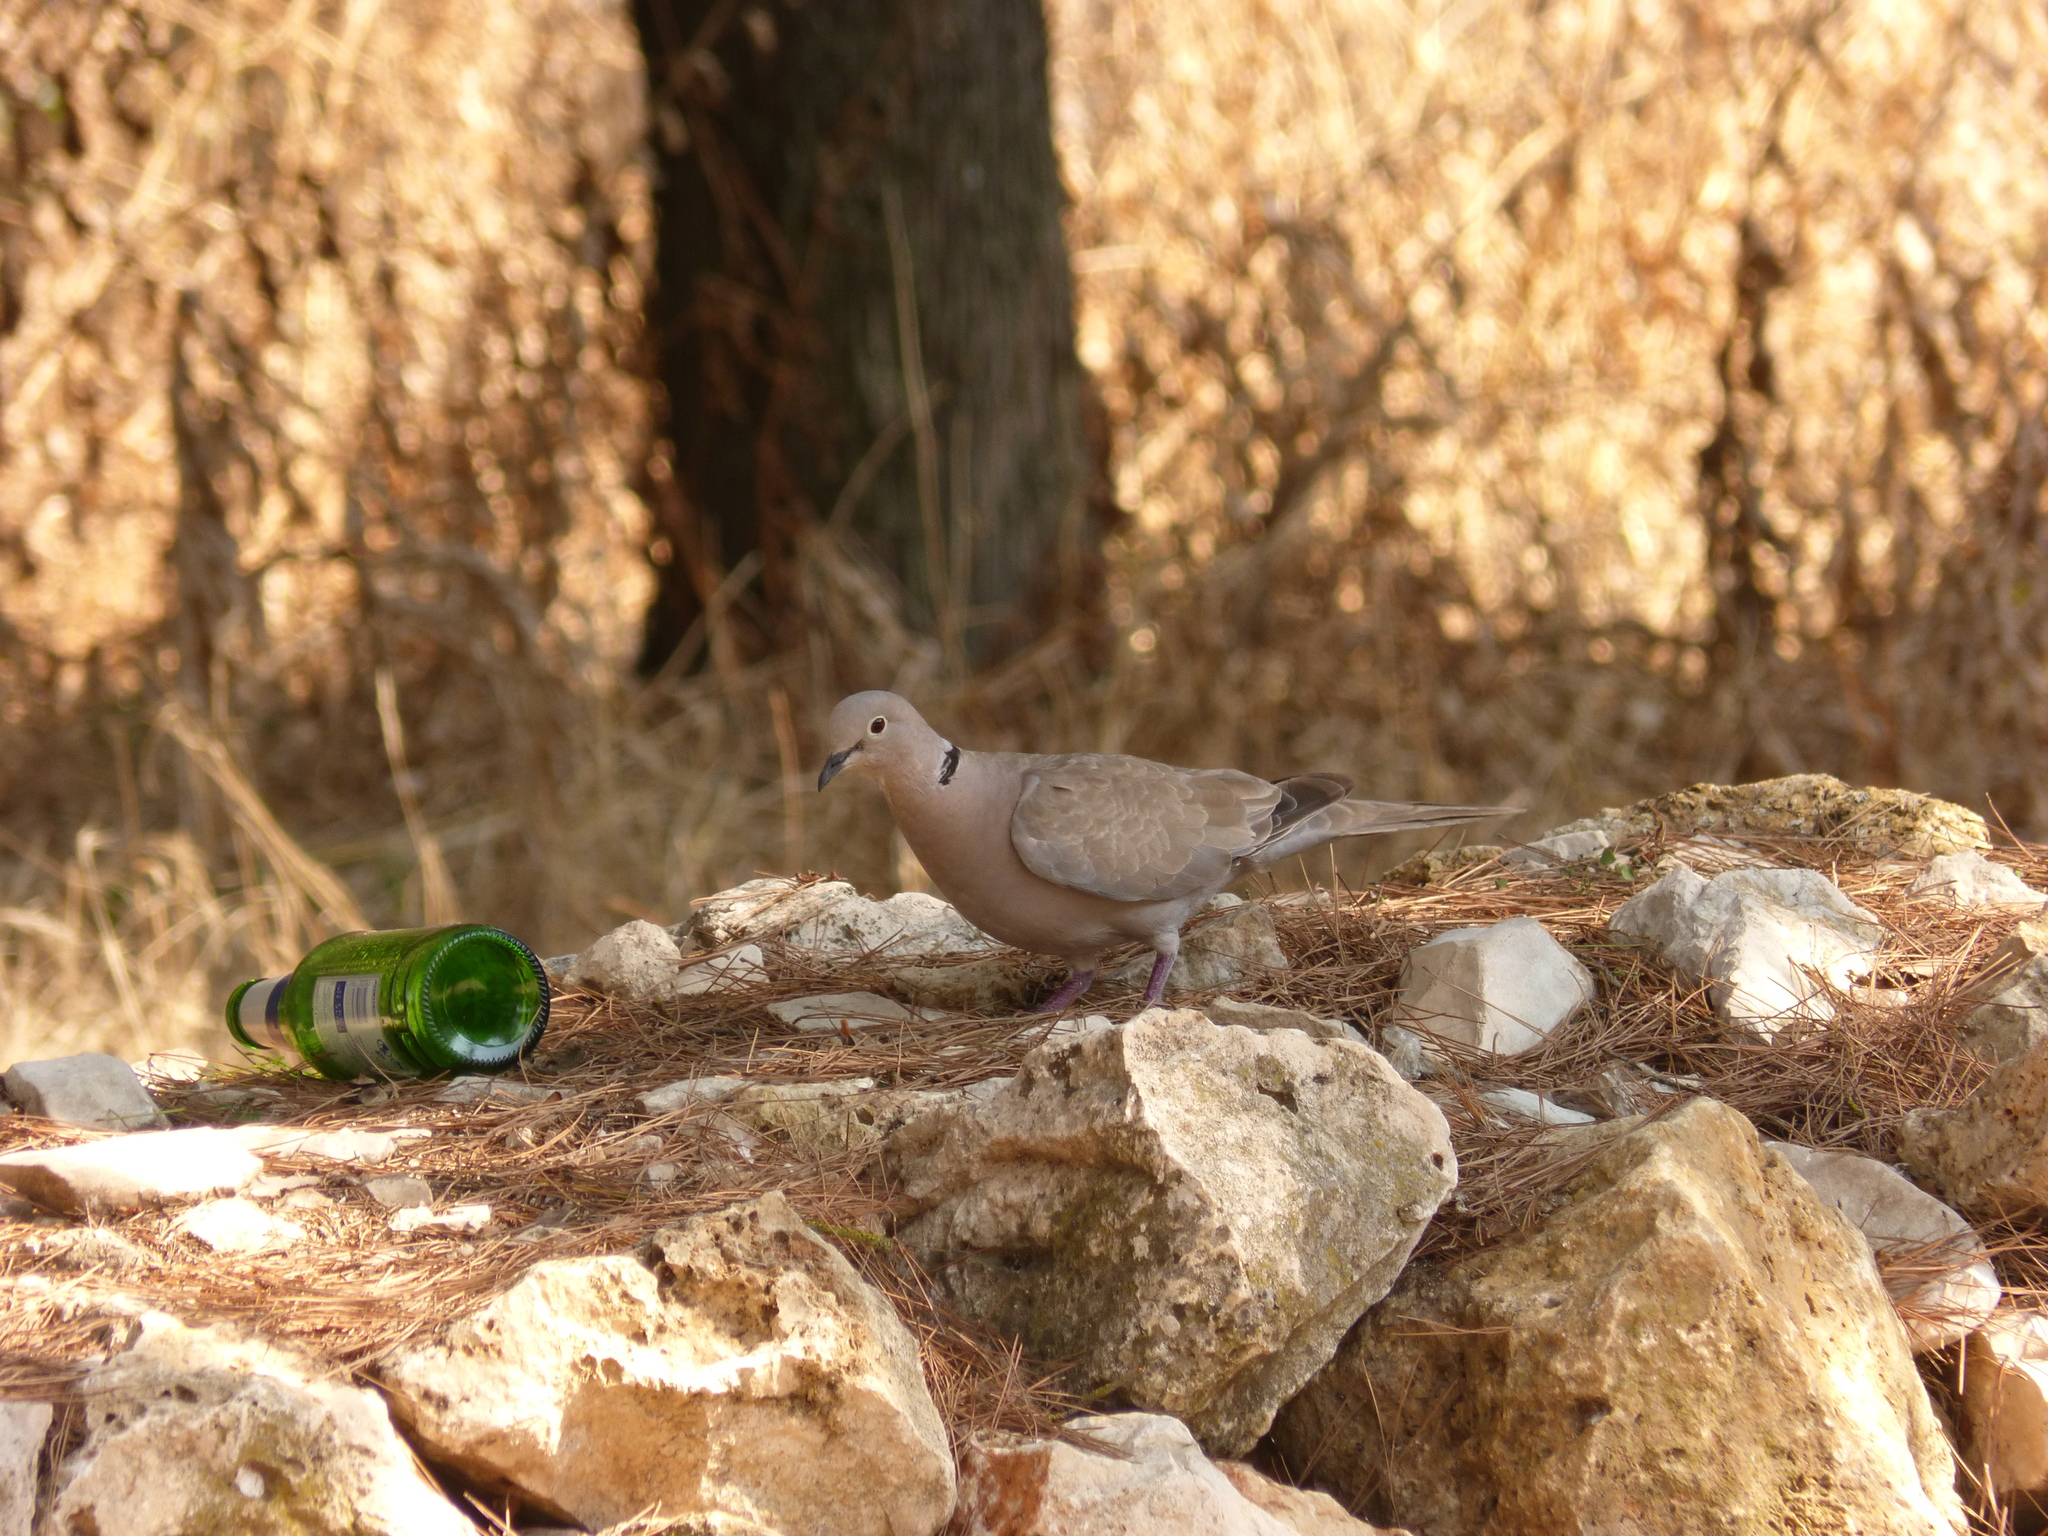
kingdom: Animalia
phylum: Chordata
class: Aves
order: Columbiformes
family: Columbidae
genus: Streptopelia
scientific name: Streptopelia decaocto
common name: Eurasian collared dove
